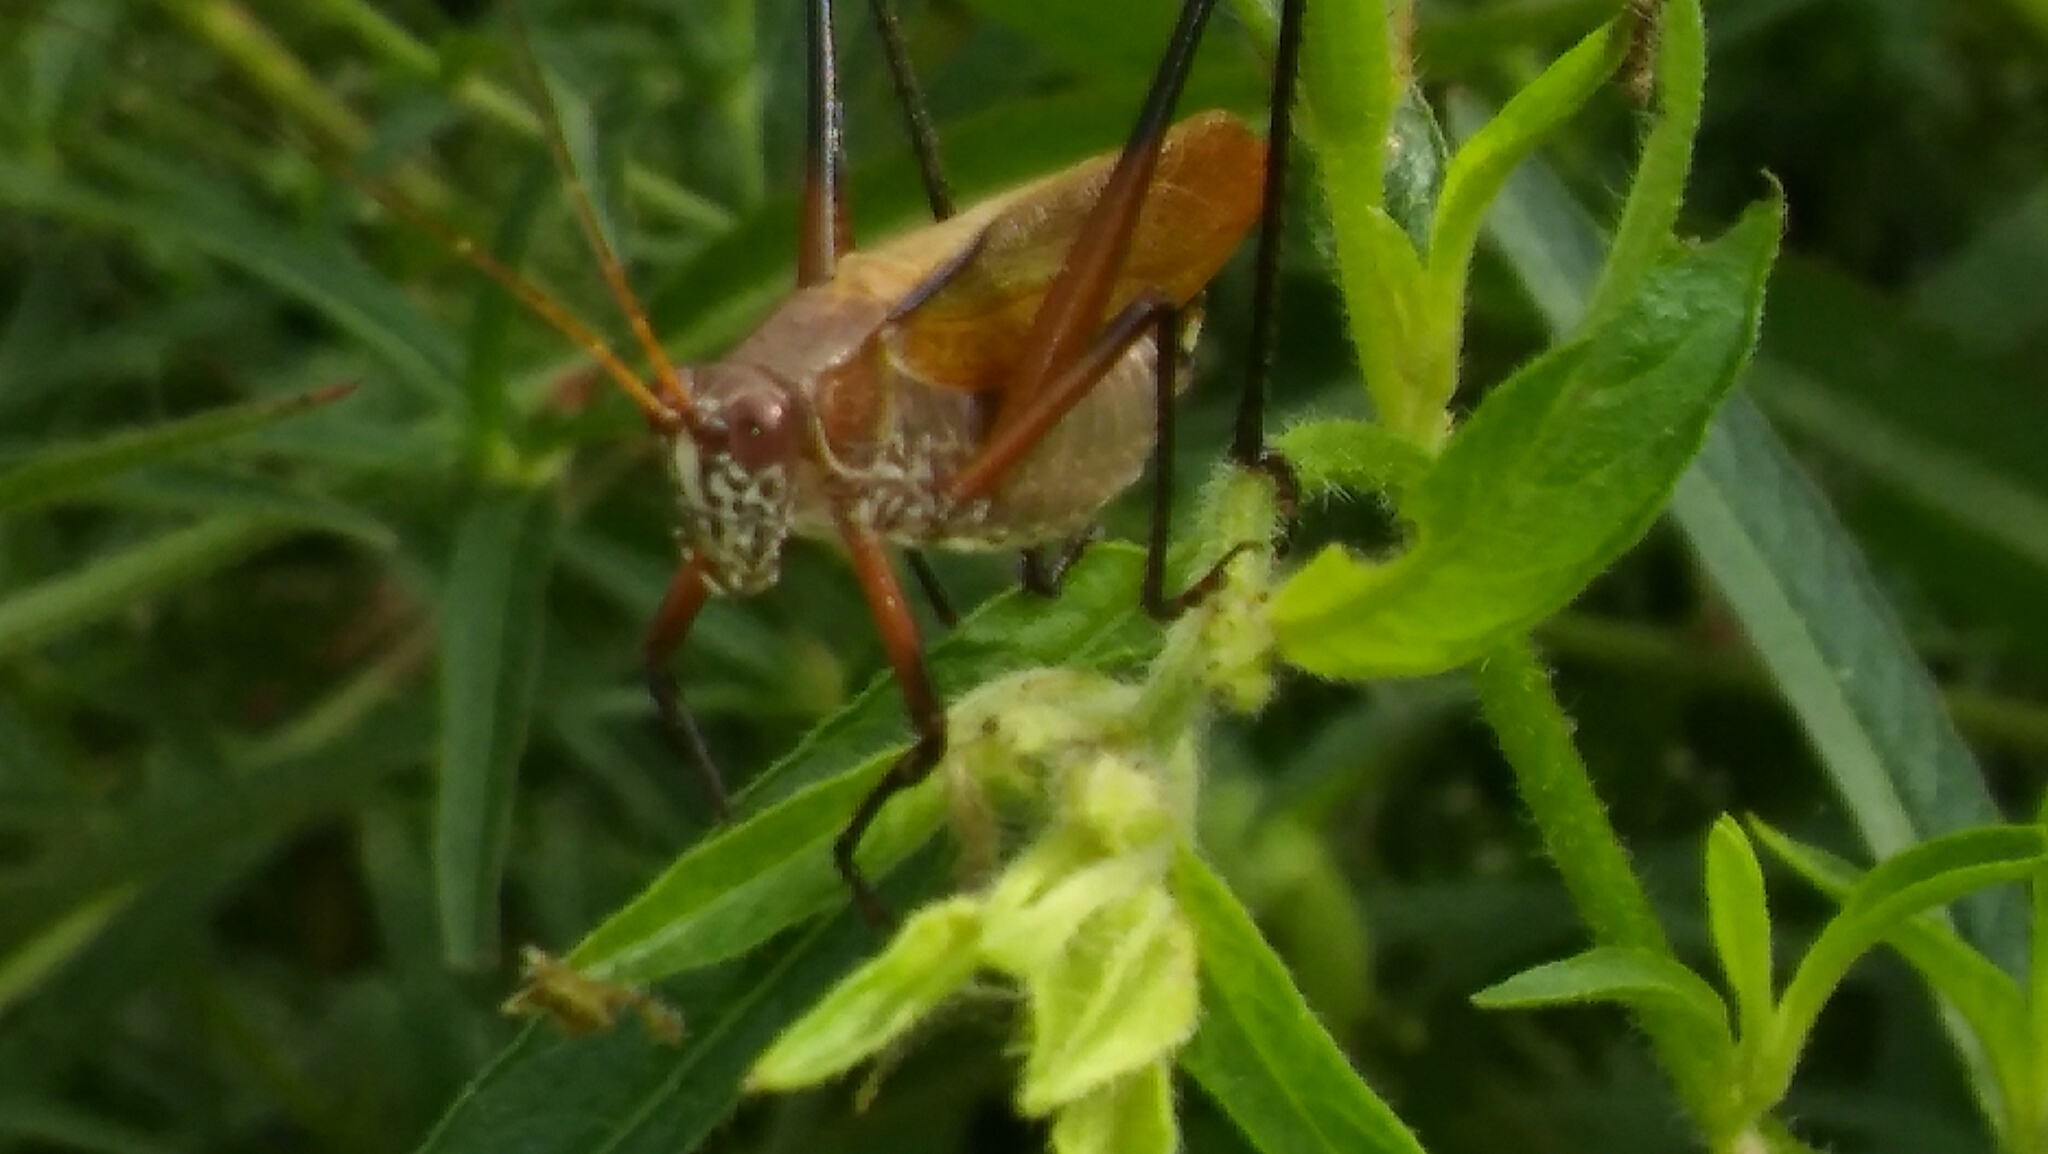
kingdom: Animalia
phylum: Arthropoda
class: Insecta
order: Orthoptera
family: Tettigoniidae
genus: Theudoria
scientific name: Theudoria melanocnemis
